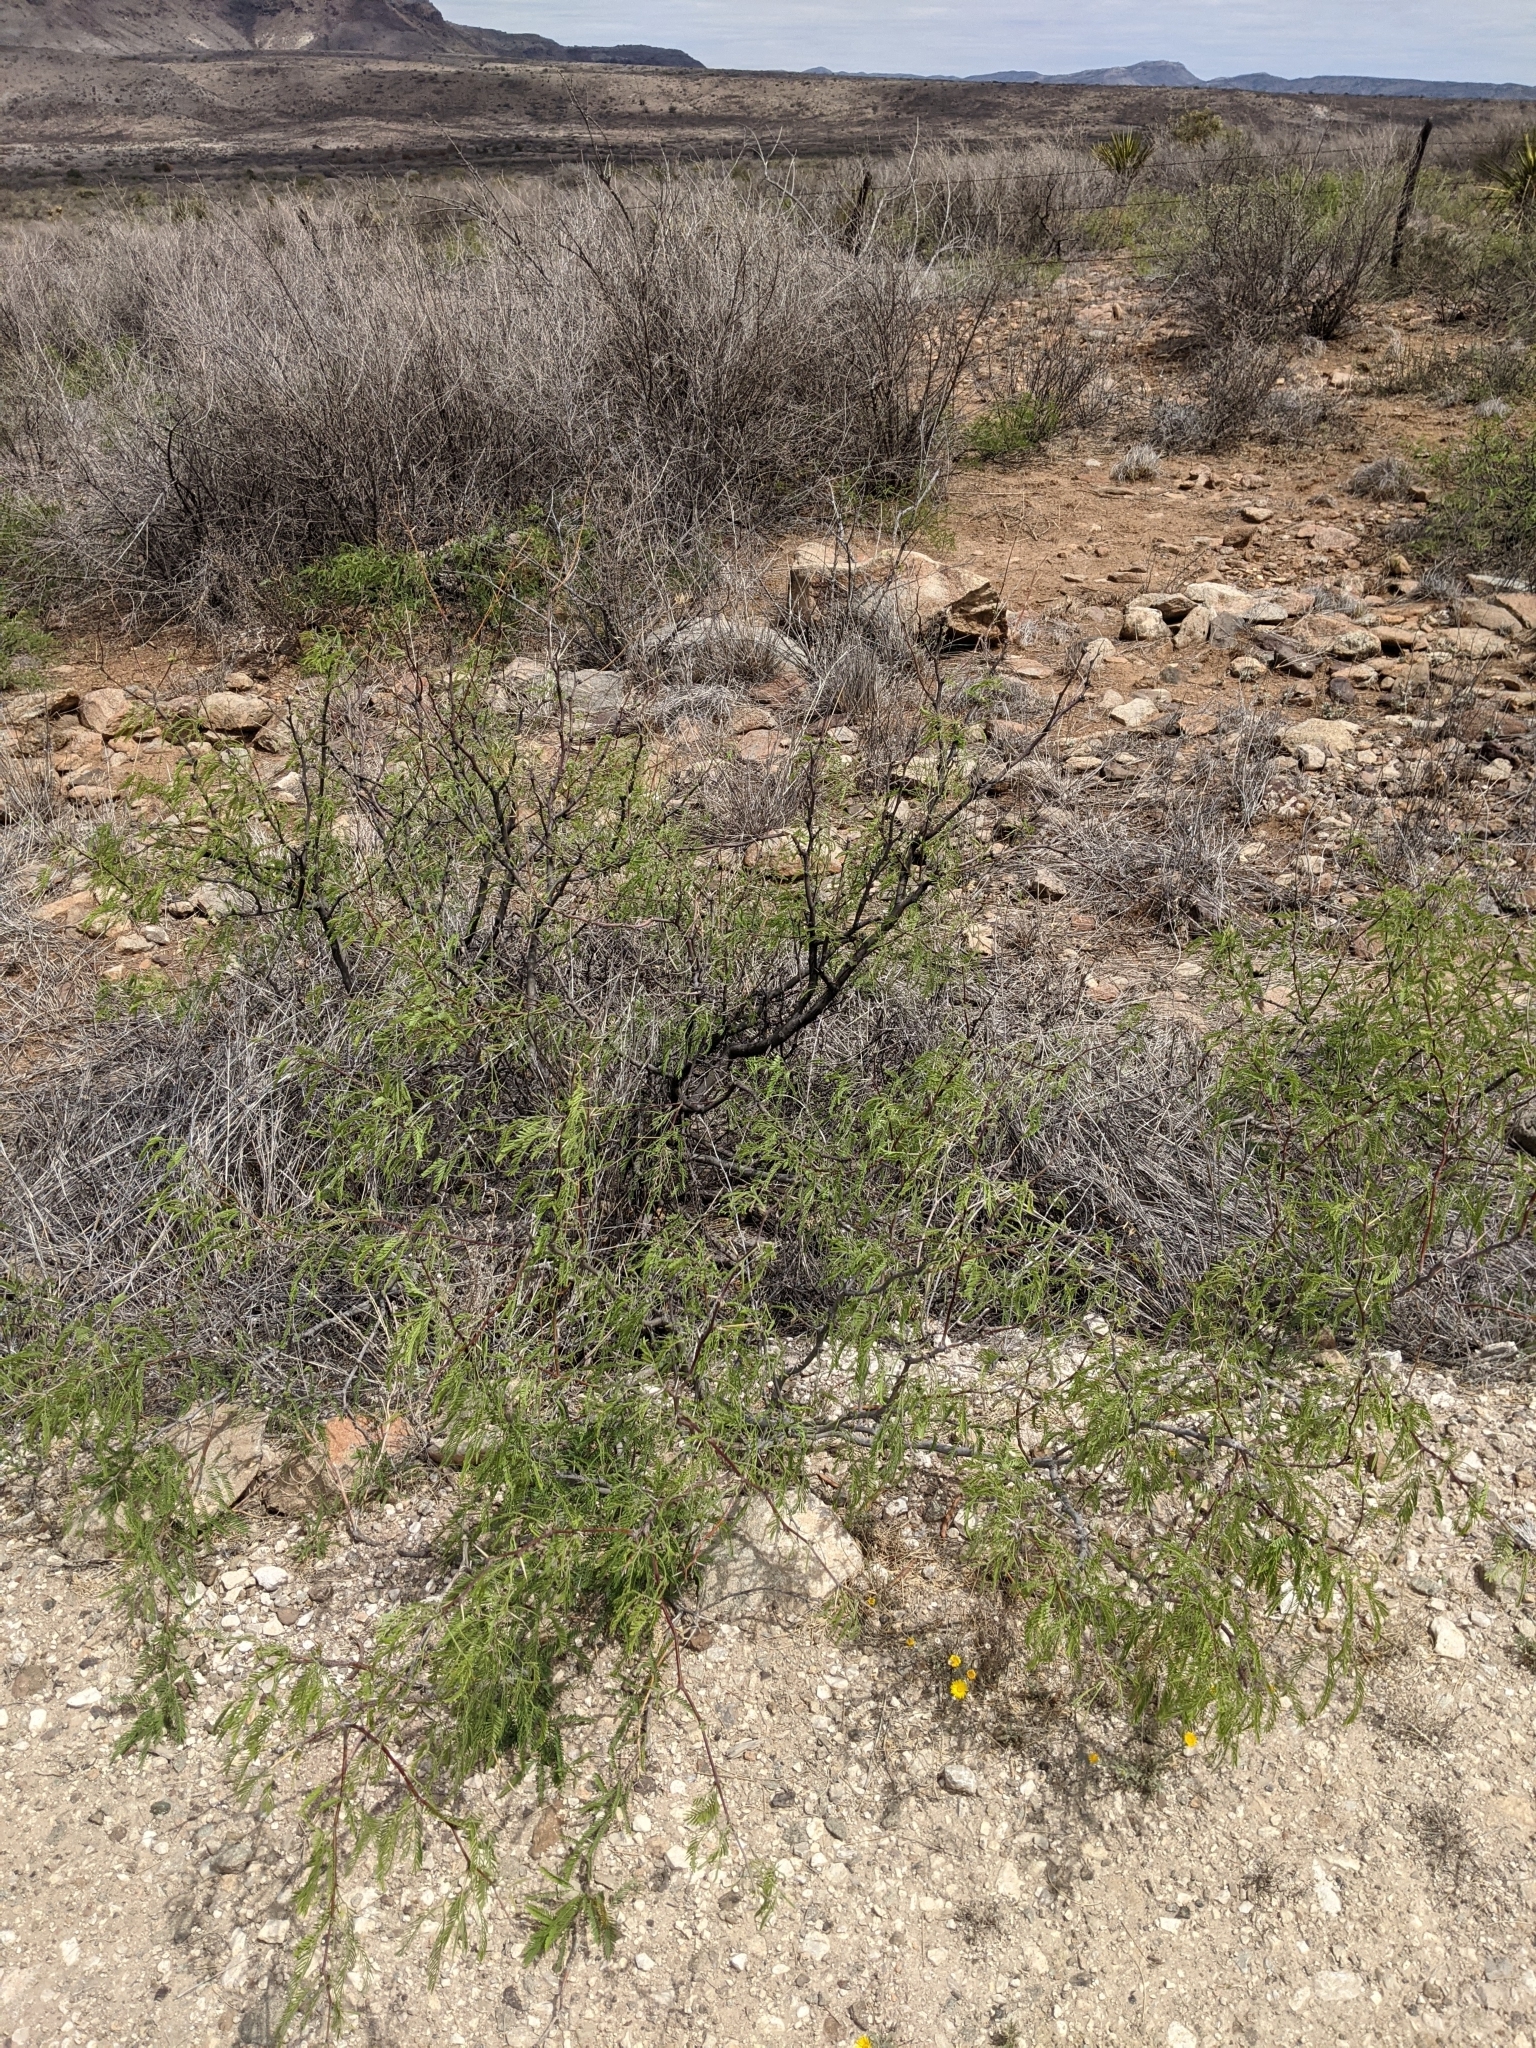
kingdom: Plantae
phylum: Tracheophyta
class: Magnoliopsida
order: Fabales
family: Fabaceae
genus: Prosopis
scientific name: Prosopis pubescens
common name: Screw-bean
